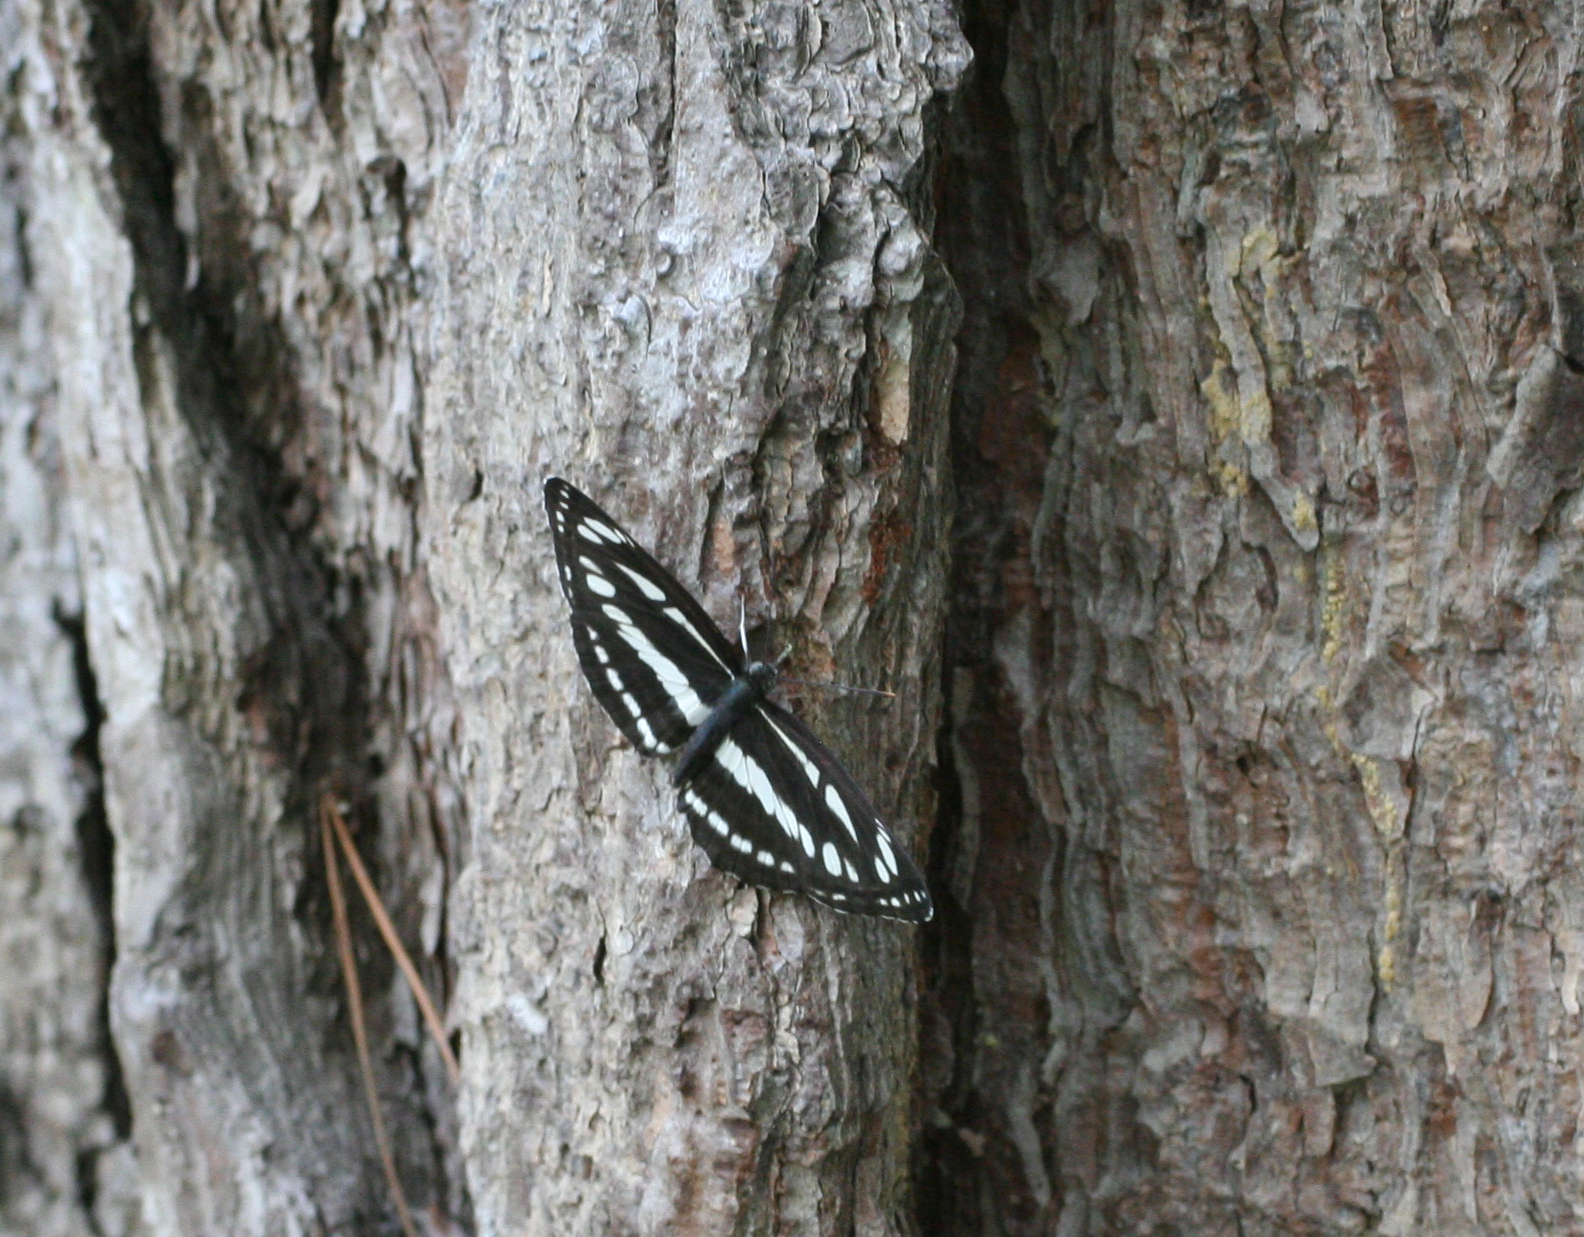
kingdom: Animalia
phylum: Arthropoda
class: Insecta
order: Lepidoptera
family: Nymphalidae
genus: Neptis
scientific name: Neptis sappho
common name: Common glider
